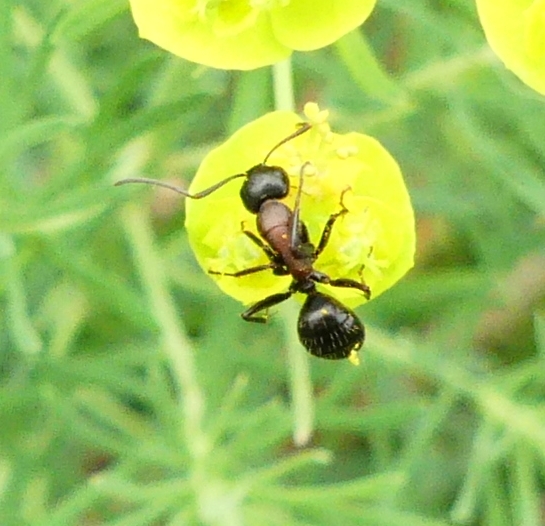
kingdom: Animalia
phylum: Arthropoda
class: Insecta
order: Hymenoptera
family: Formicidae
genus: Camponotus
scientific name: Camponotus novaeboracensis
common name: New york carpenter ant
